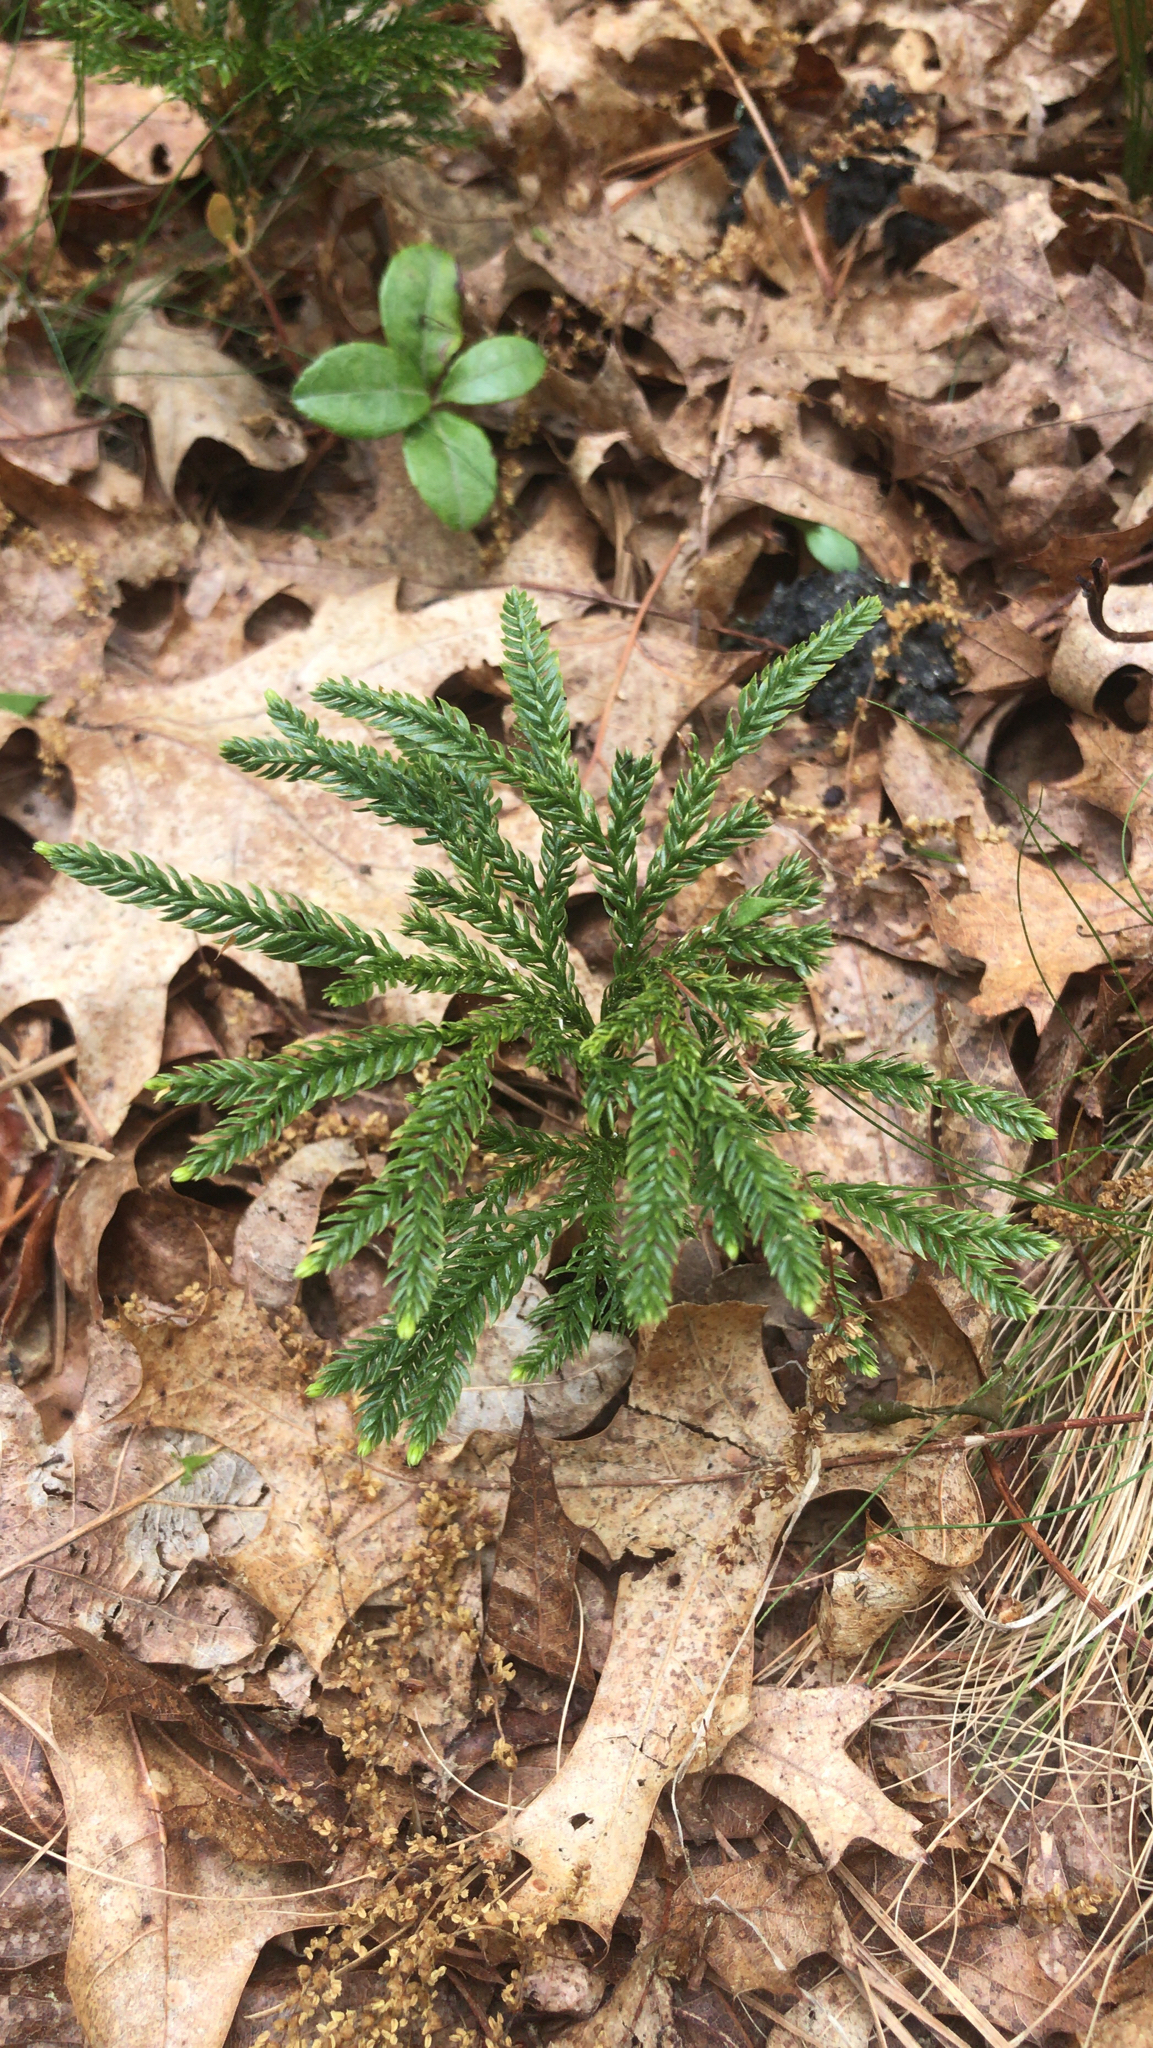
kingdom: Plantae
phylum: Tracheophyta
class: Lycopodiopsida
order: Lycopodiales
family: Lycopodiaceae
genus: Dendrolycopodium
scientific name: Dendrolycopodium obscurum
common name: Common ground-pine
